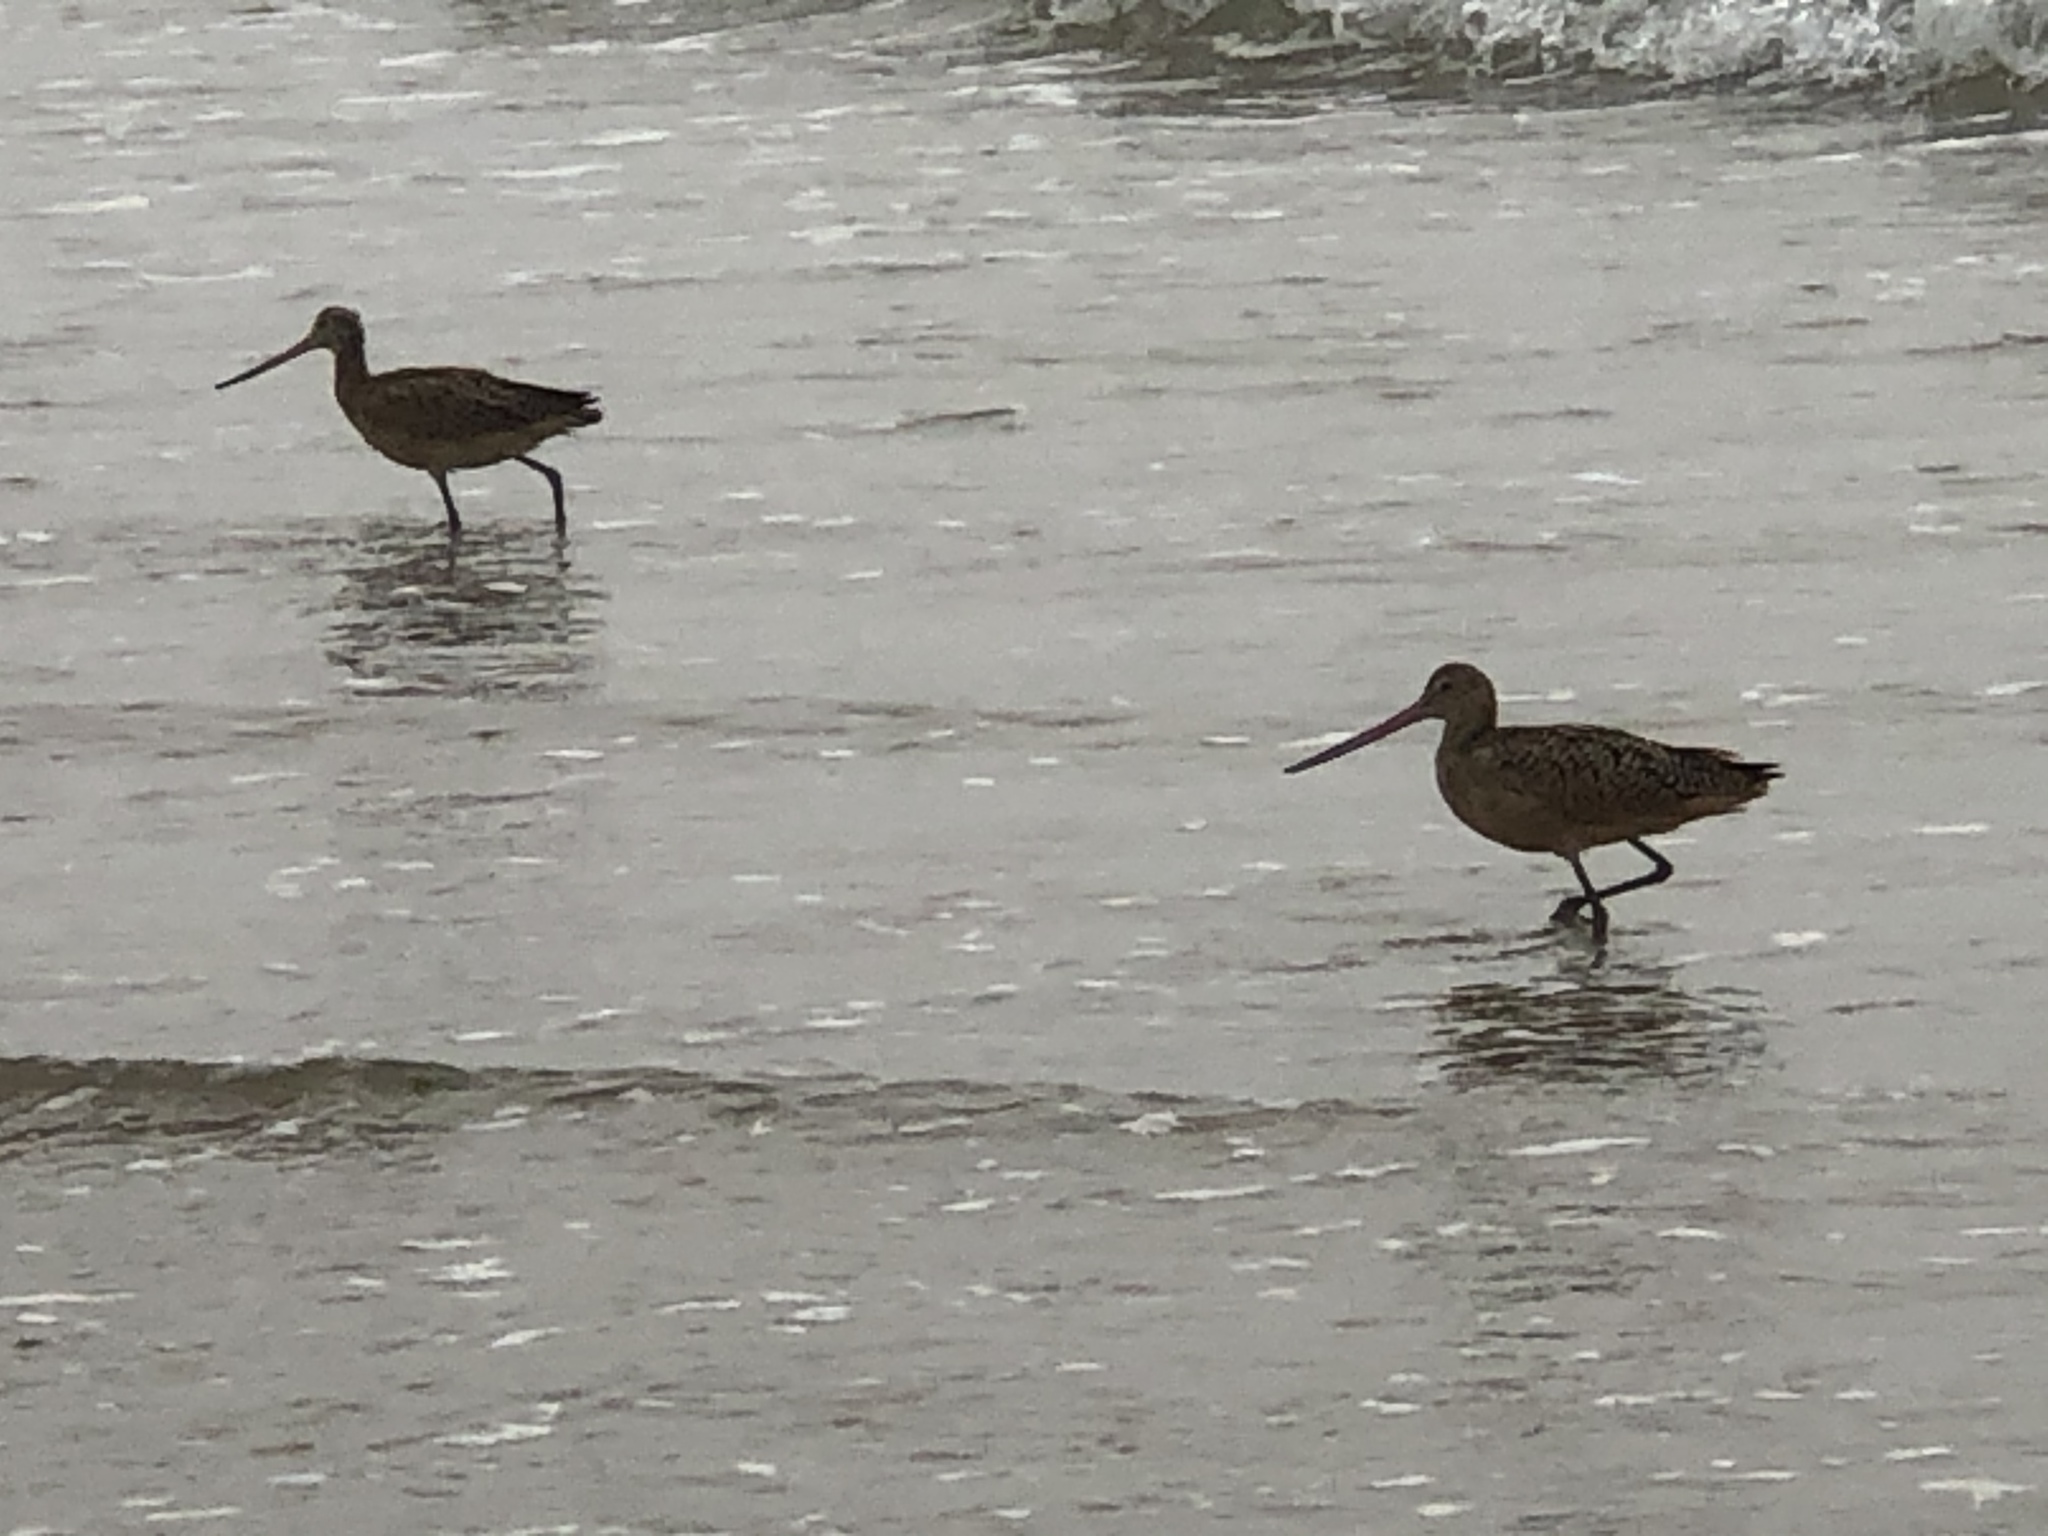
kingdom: Animalia
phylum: Chordata
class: Aves
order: Charadriiformes
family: Scolopacidae
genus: Limosa
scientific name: Limosa fedoa
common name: Marbled godwit
